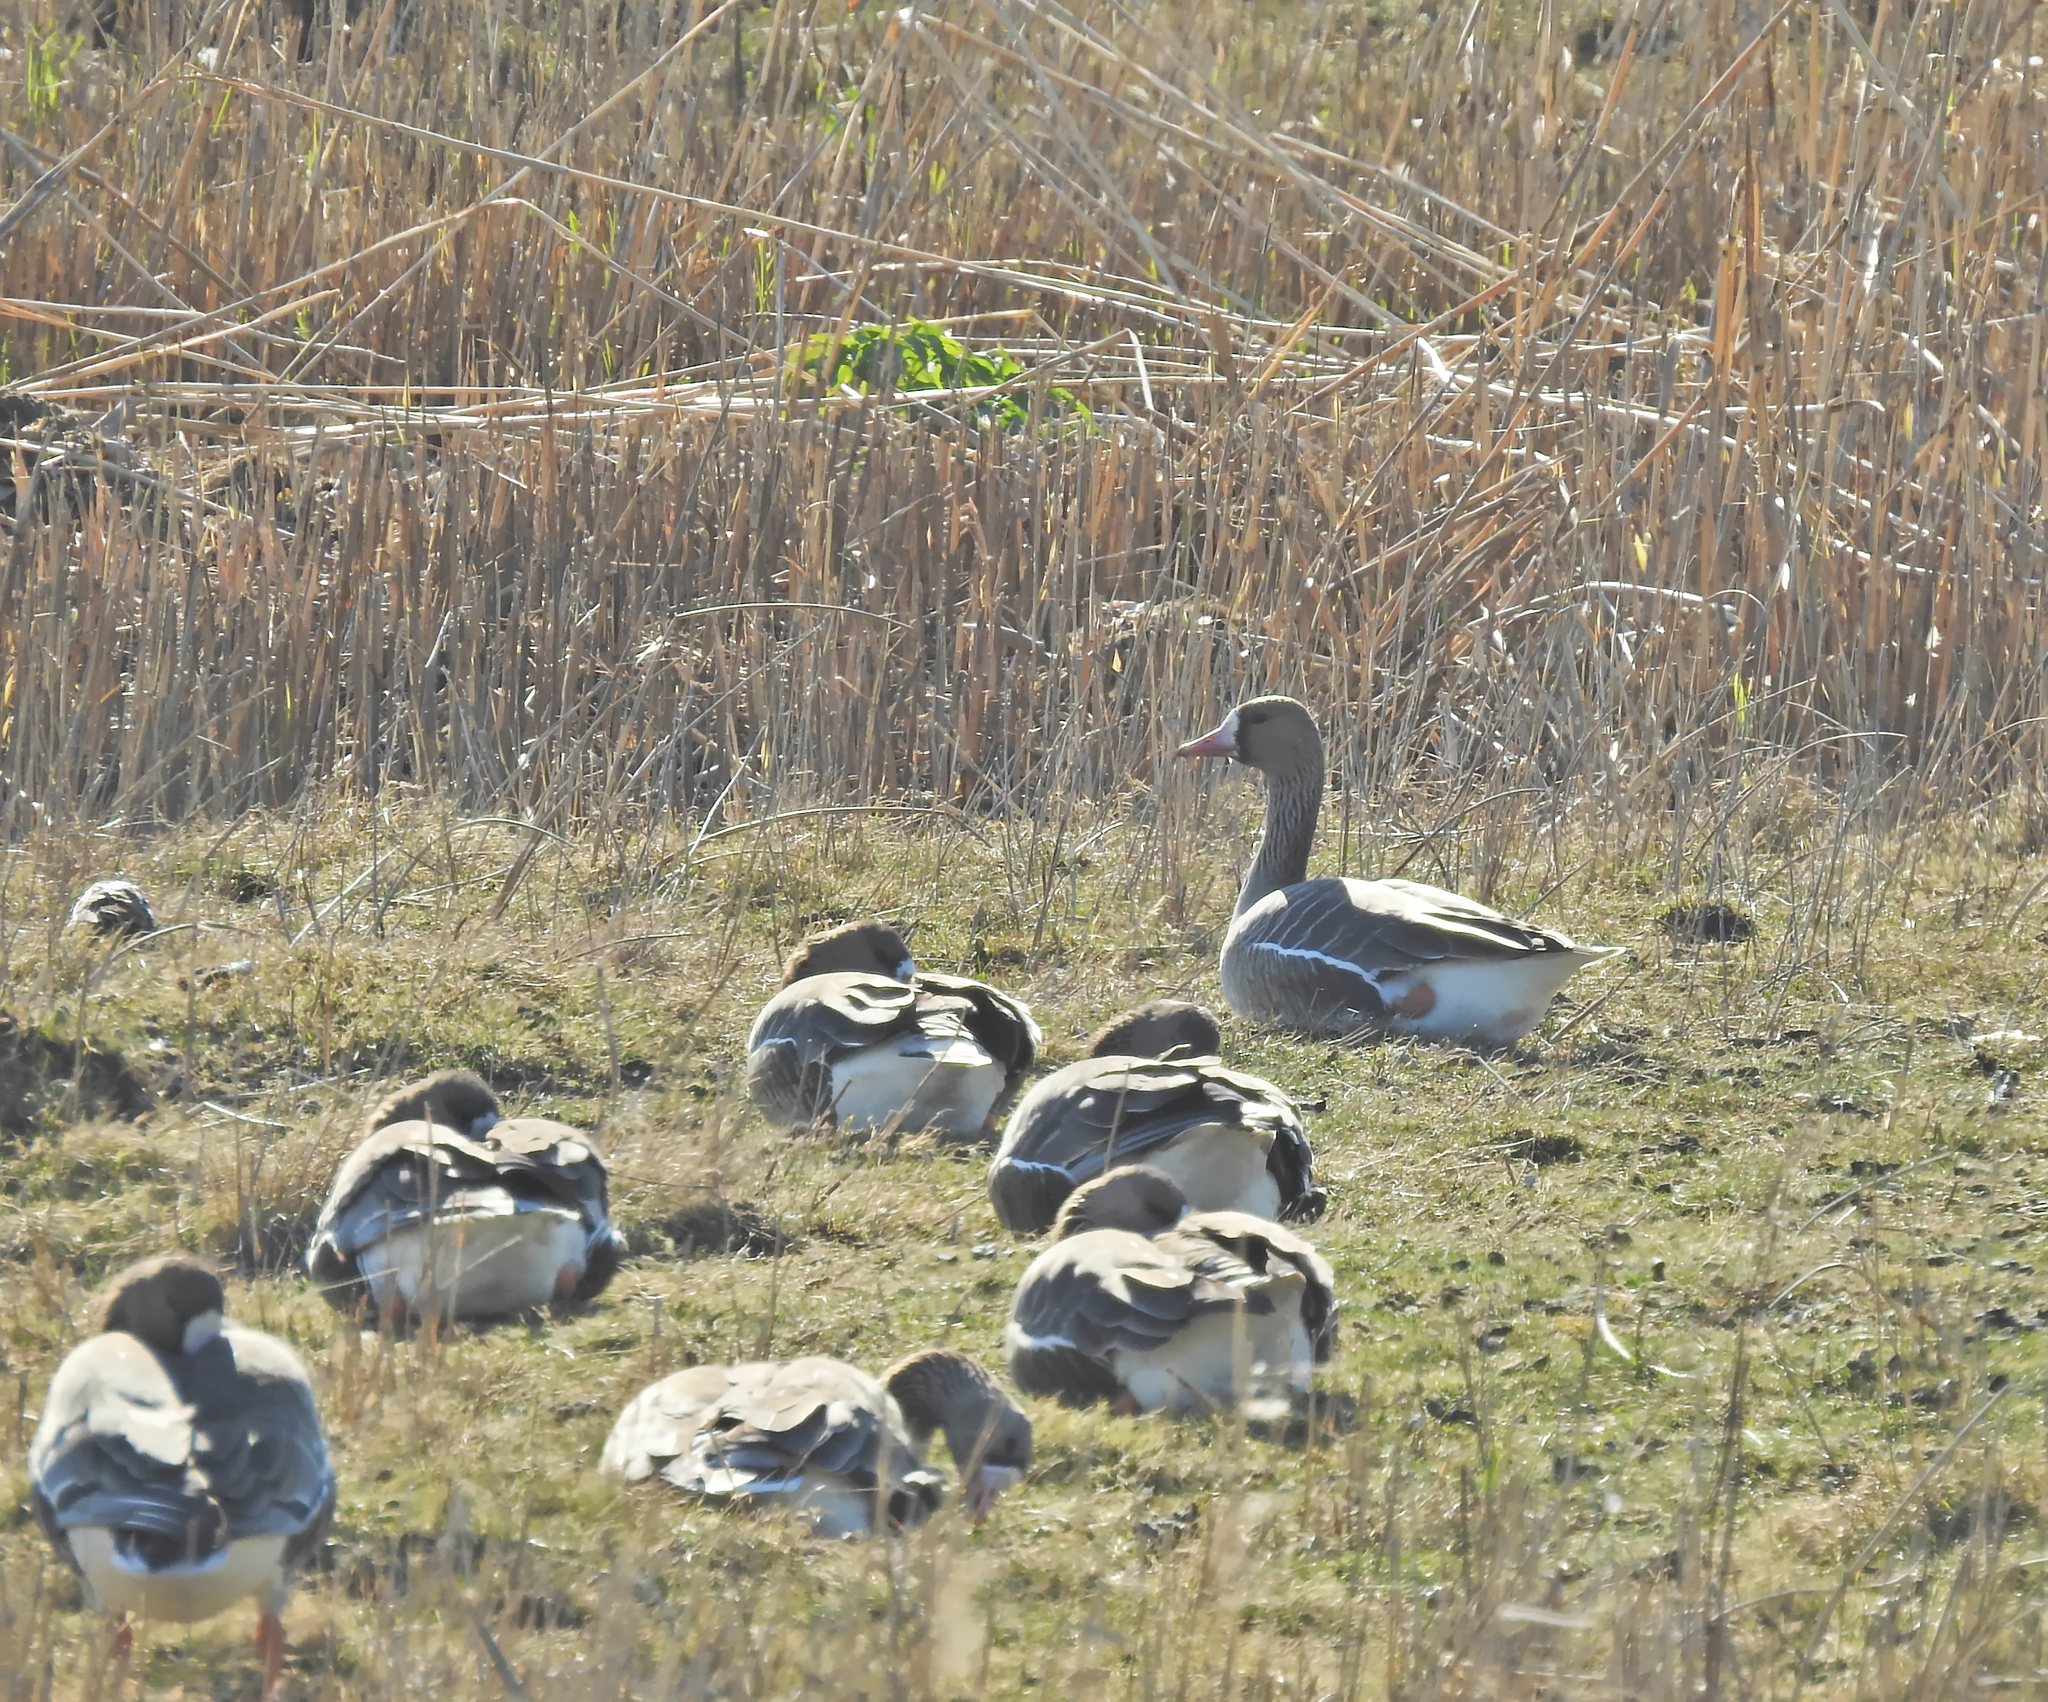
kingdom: Animalia
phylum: Chordata
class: Aves
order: Anseriformes
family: Anatidae
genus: Anser
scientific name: Anser albifrons
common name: Greater white-fronted goose
